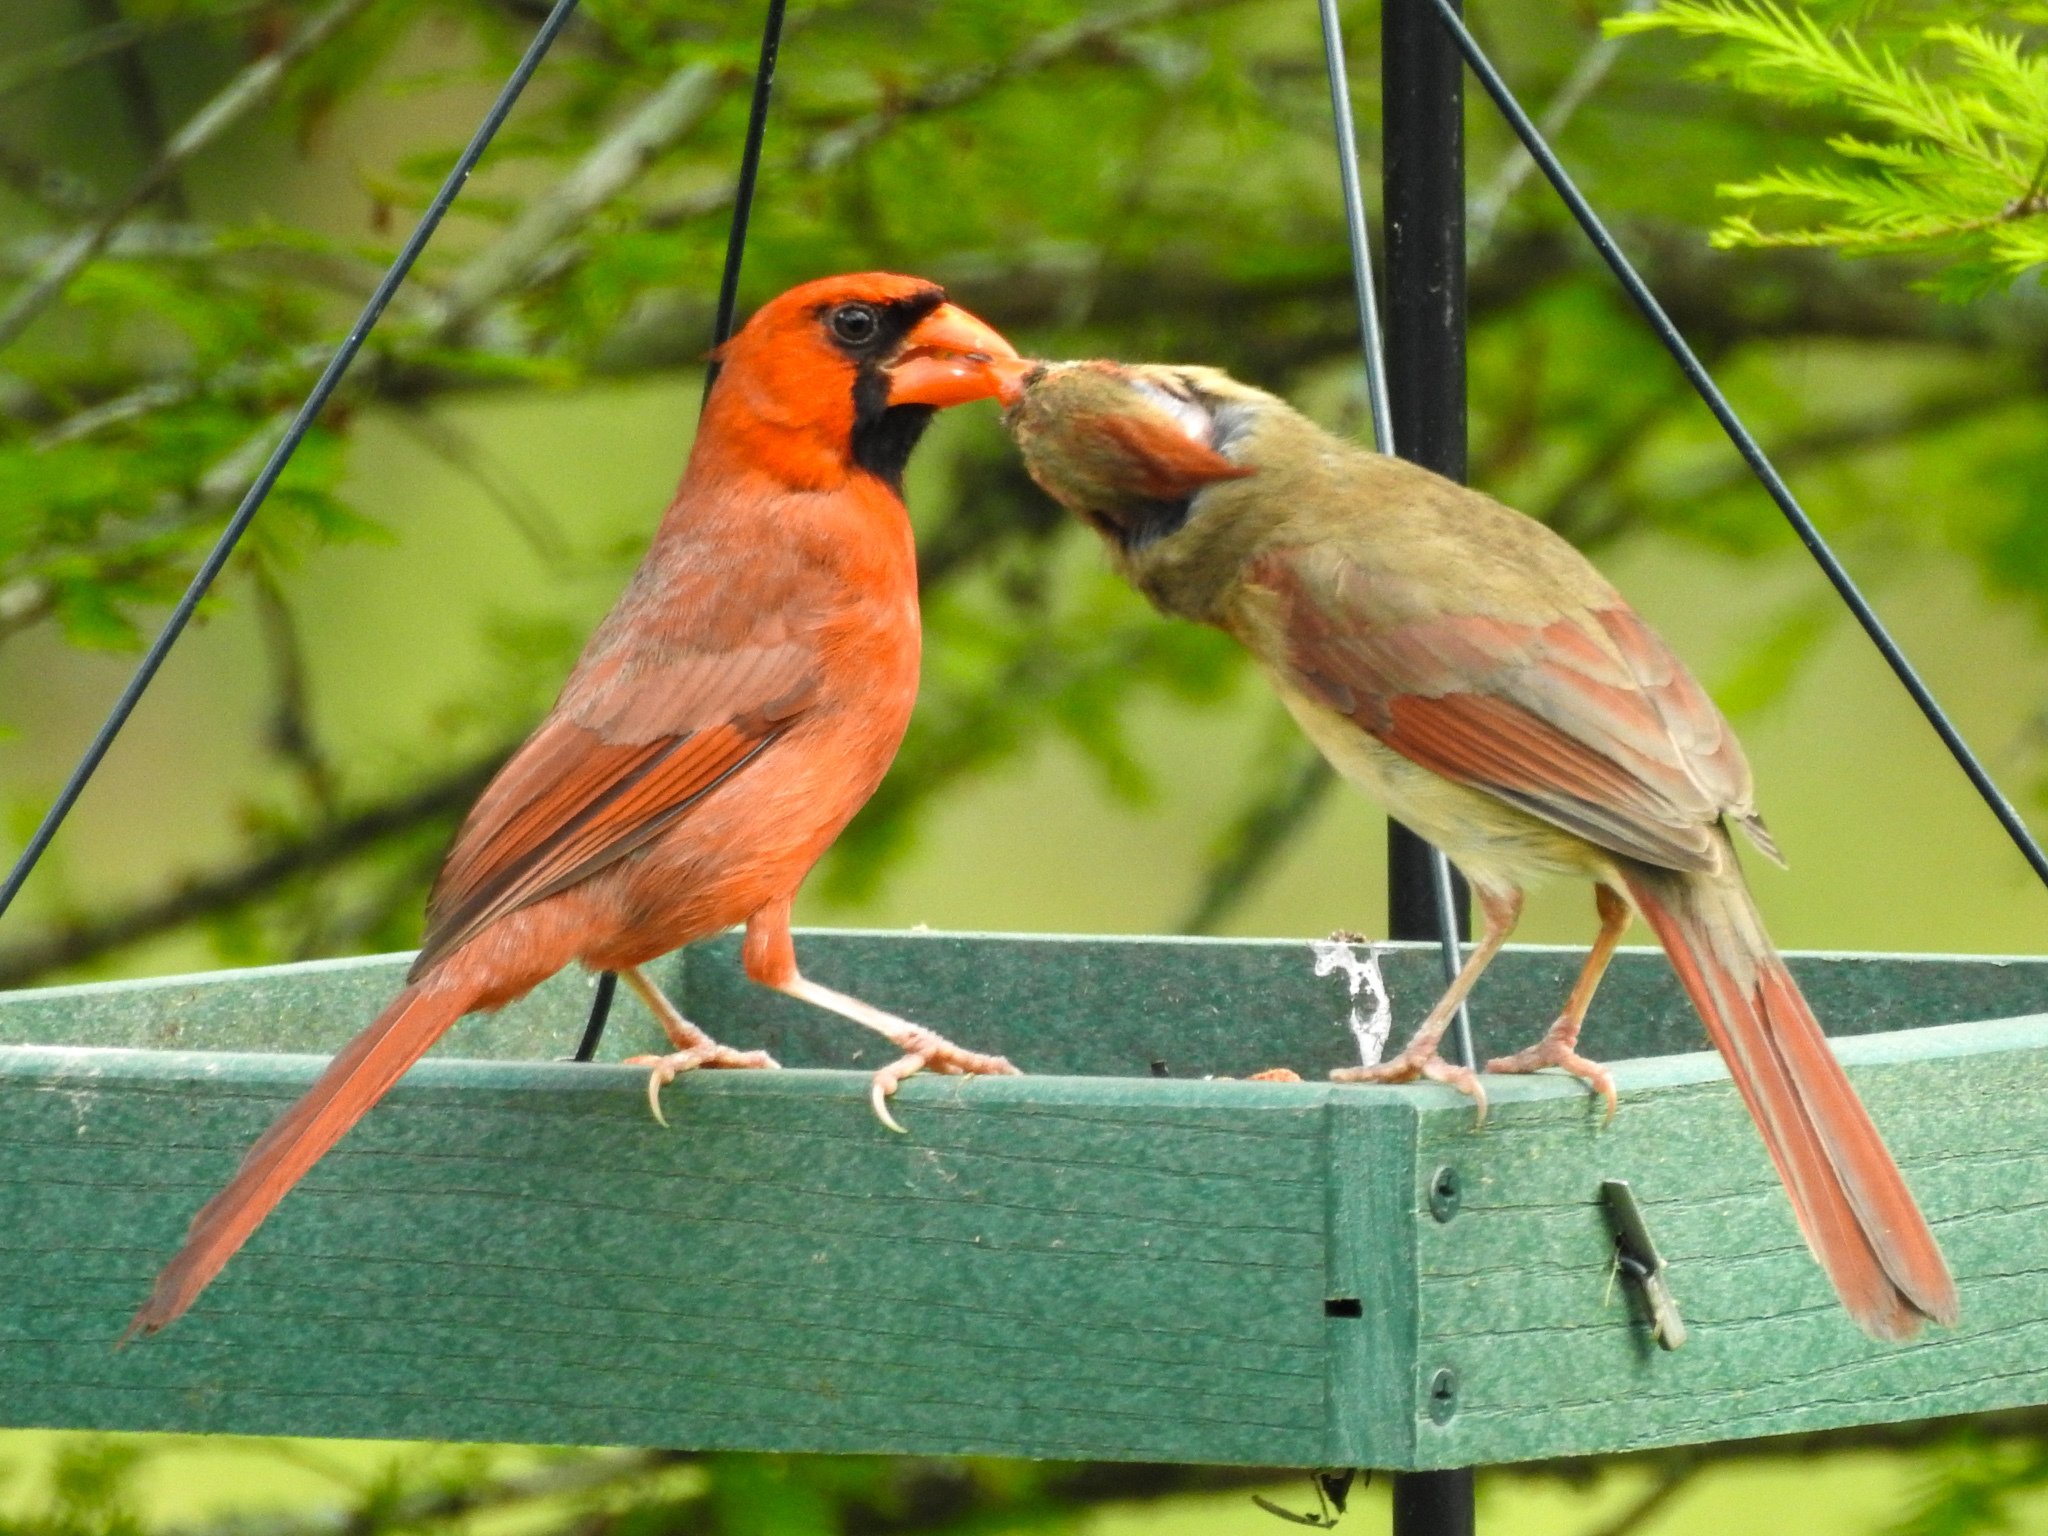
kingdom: Animalia
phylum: Chordata
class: Aves
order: Passeriformes
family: Cardinalidae
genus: Cardinalis
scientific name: Cardinalis cardinalis
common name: Northern cardinal
